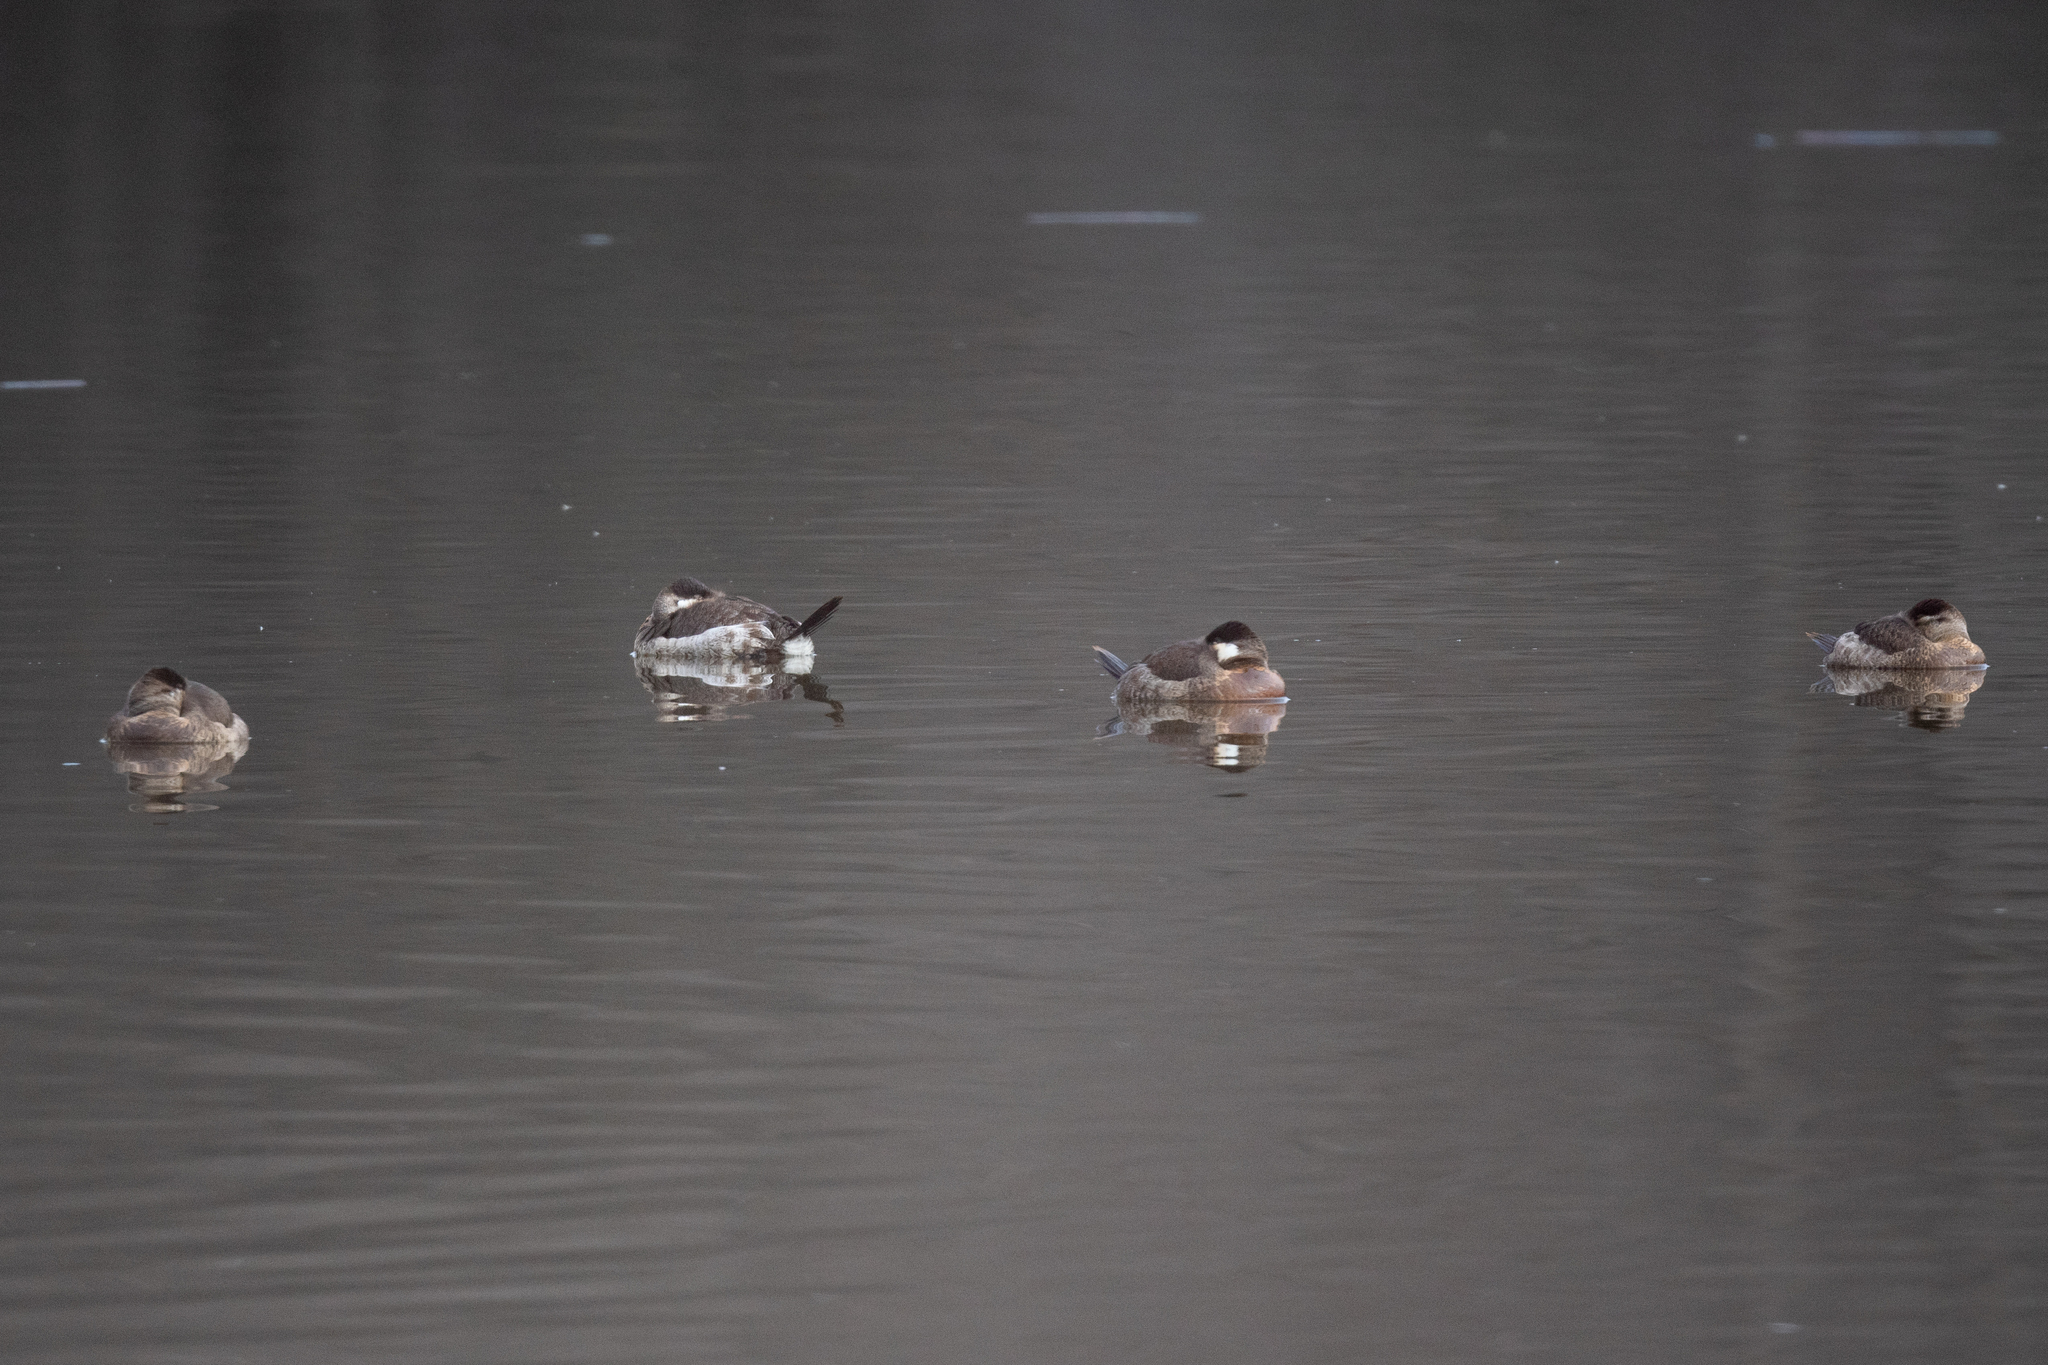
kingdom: Animalia
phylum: Chordata
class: Aves
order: Anseriformes
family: Anatidae
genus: Oxyura
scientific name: Oxyura jamaicensis
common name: Ruddy duck
